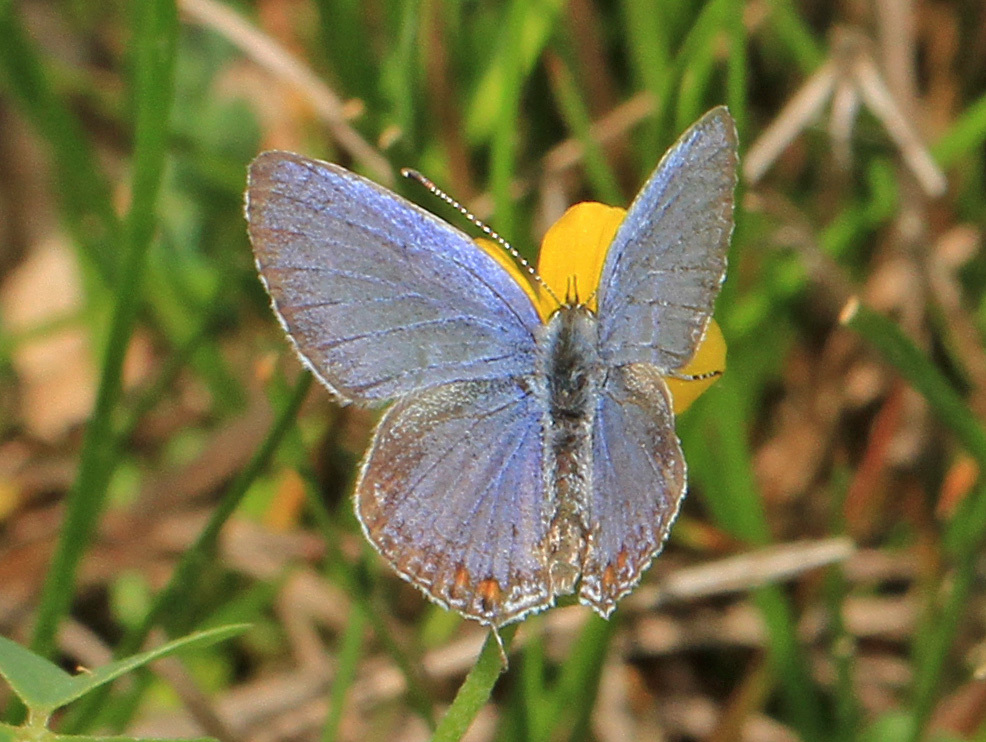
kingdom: Animalia
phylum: Arthropoda
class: Insecta
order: Lepidoptera
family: Lycaenidae
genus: Elkalyce
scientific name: Elkalyce comyntas
